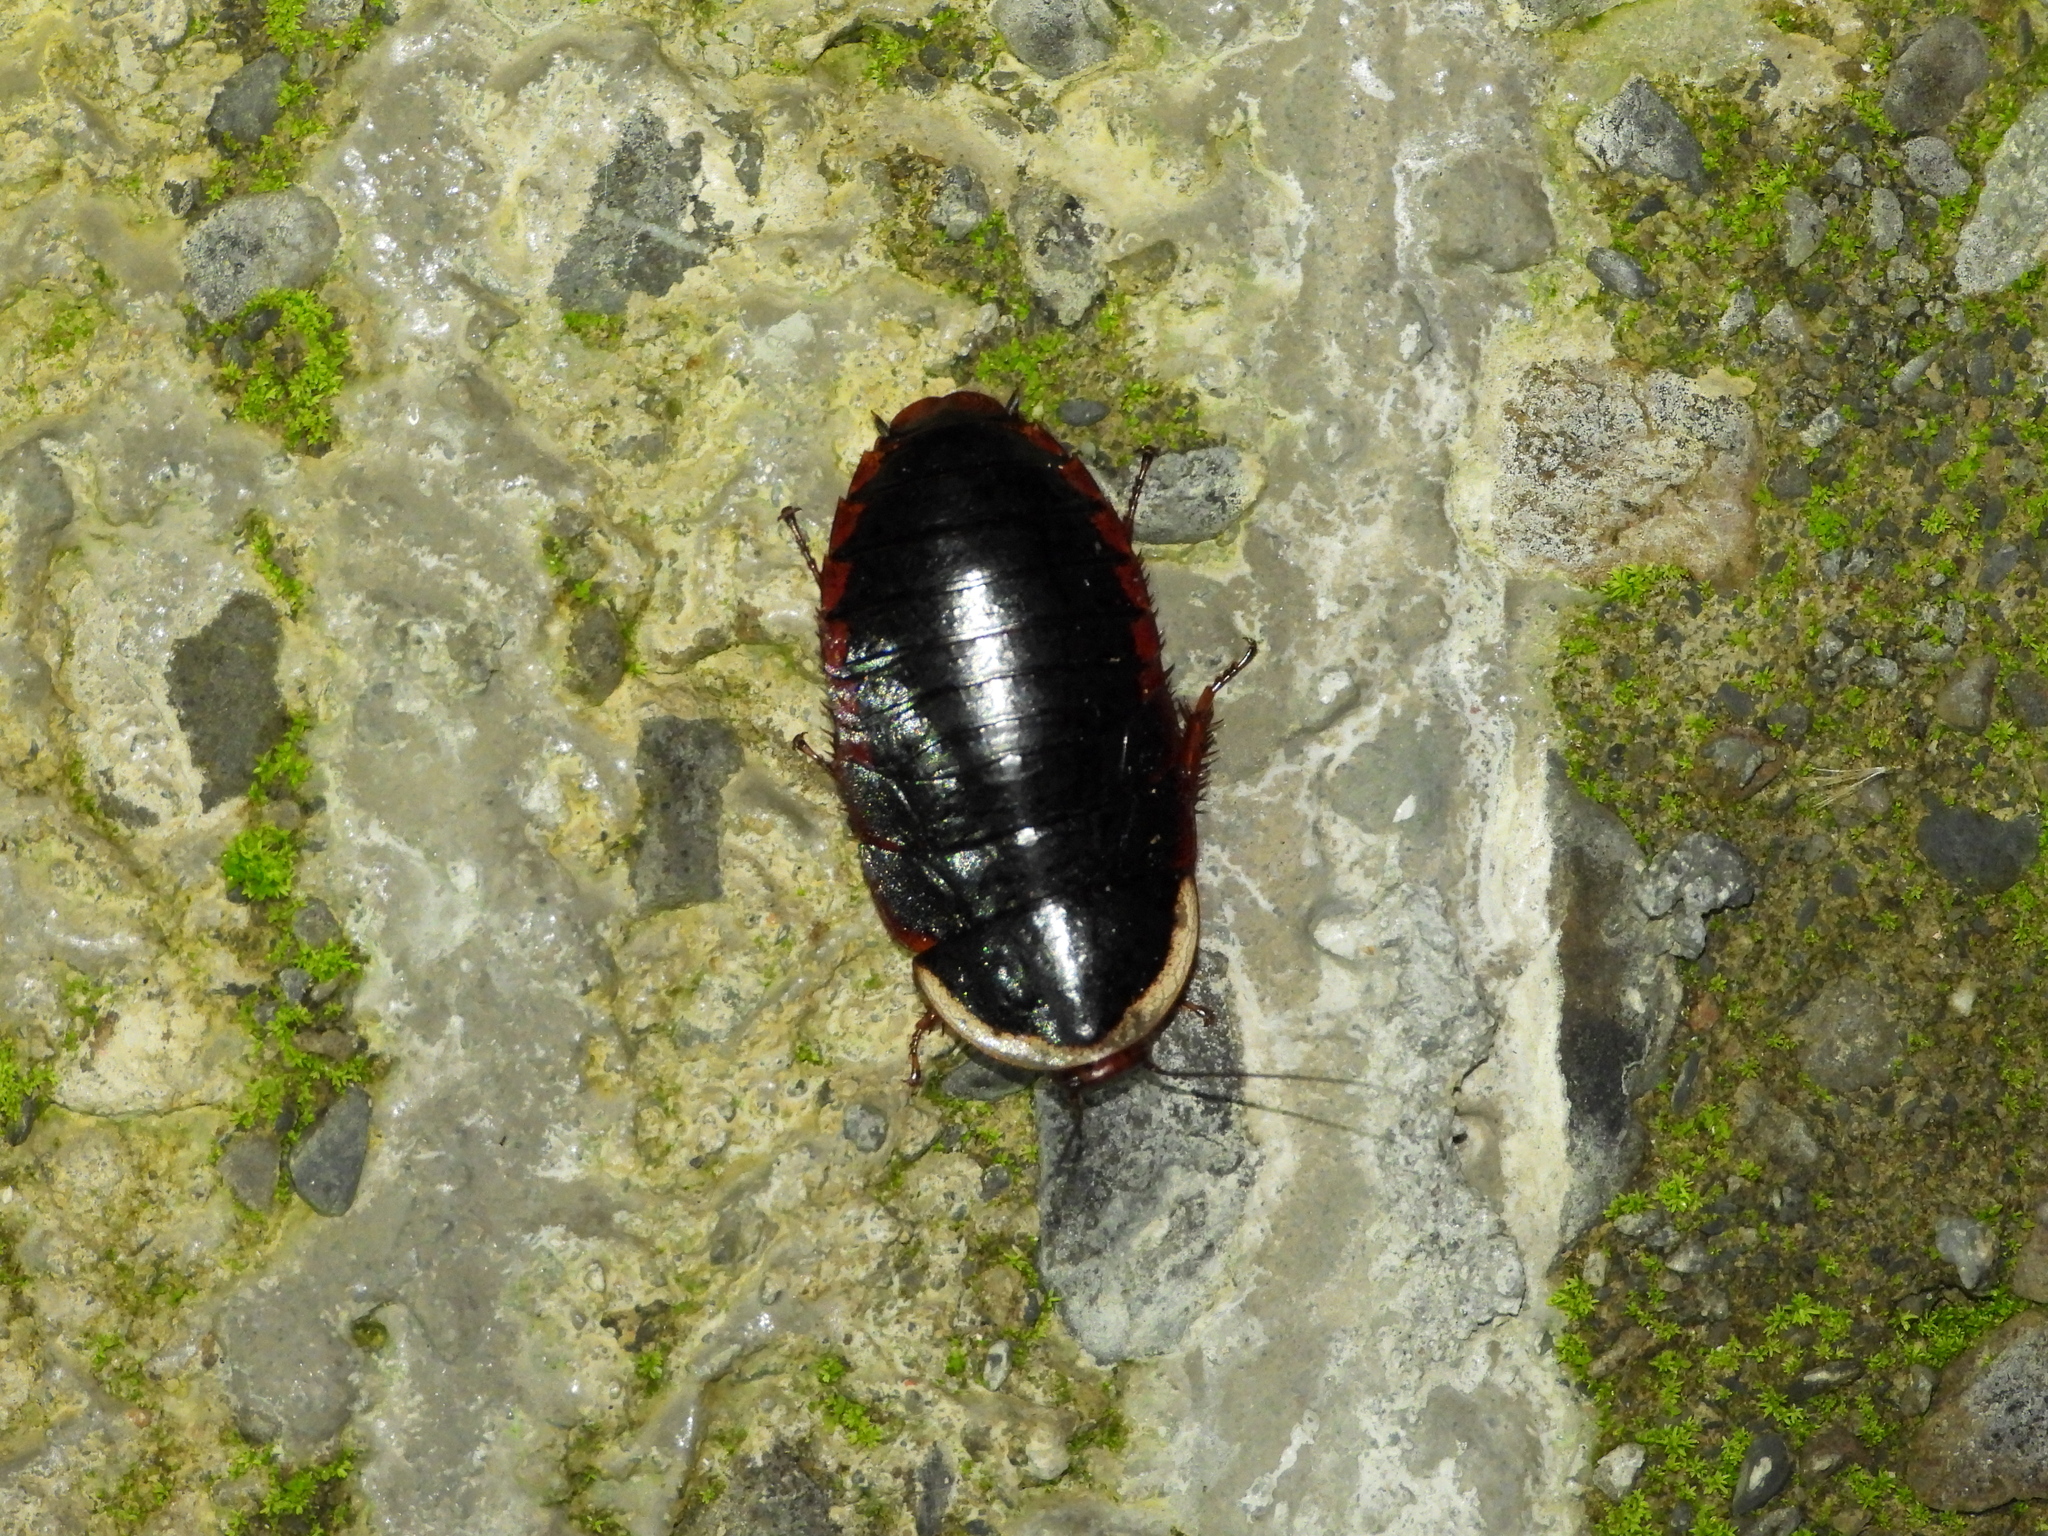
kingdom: Animalia
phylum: Arthropoda
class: Insecta
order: Blattodea
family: Blaberidae
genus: Opisthoplatia
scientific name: Opisthoplatia orientalis
